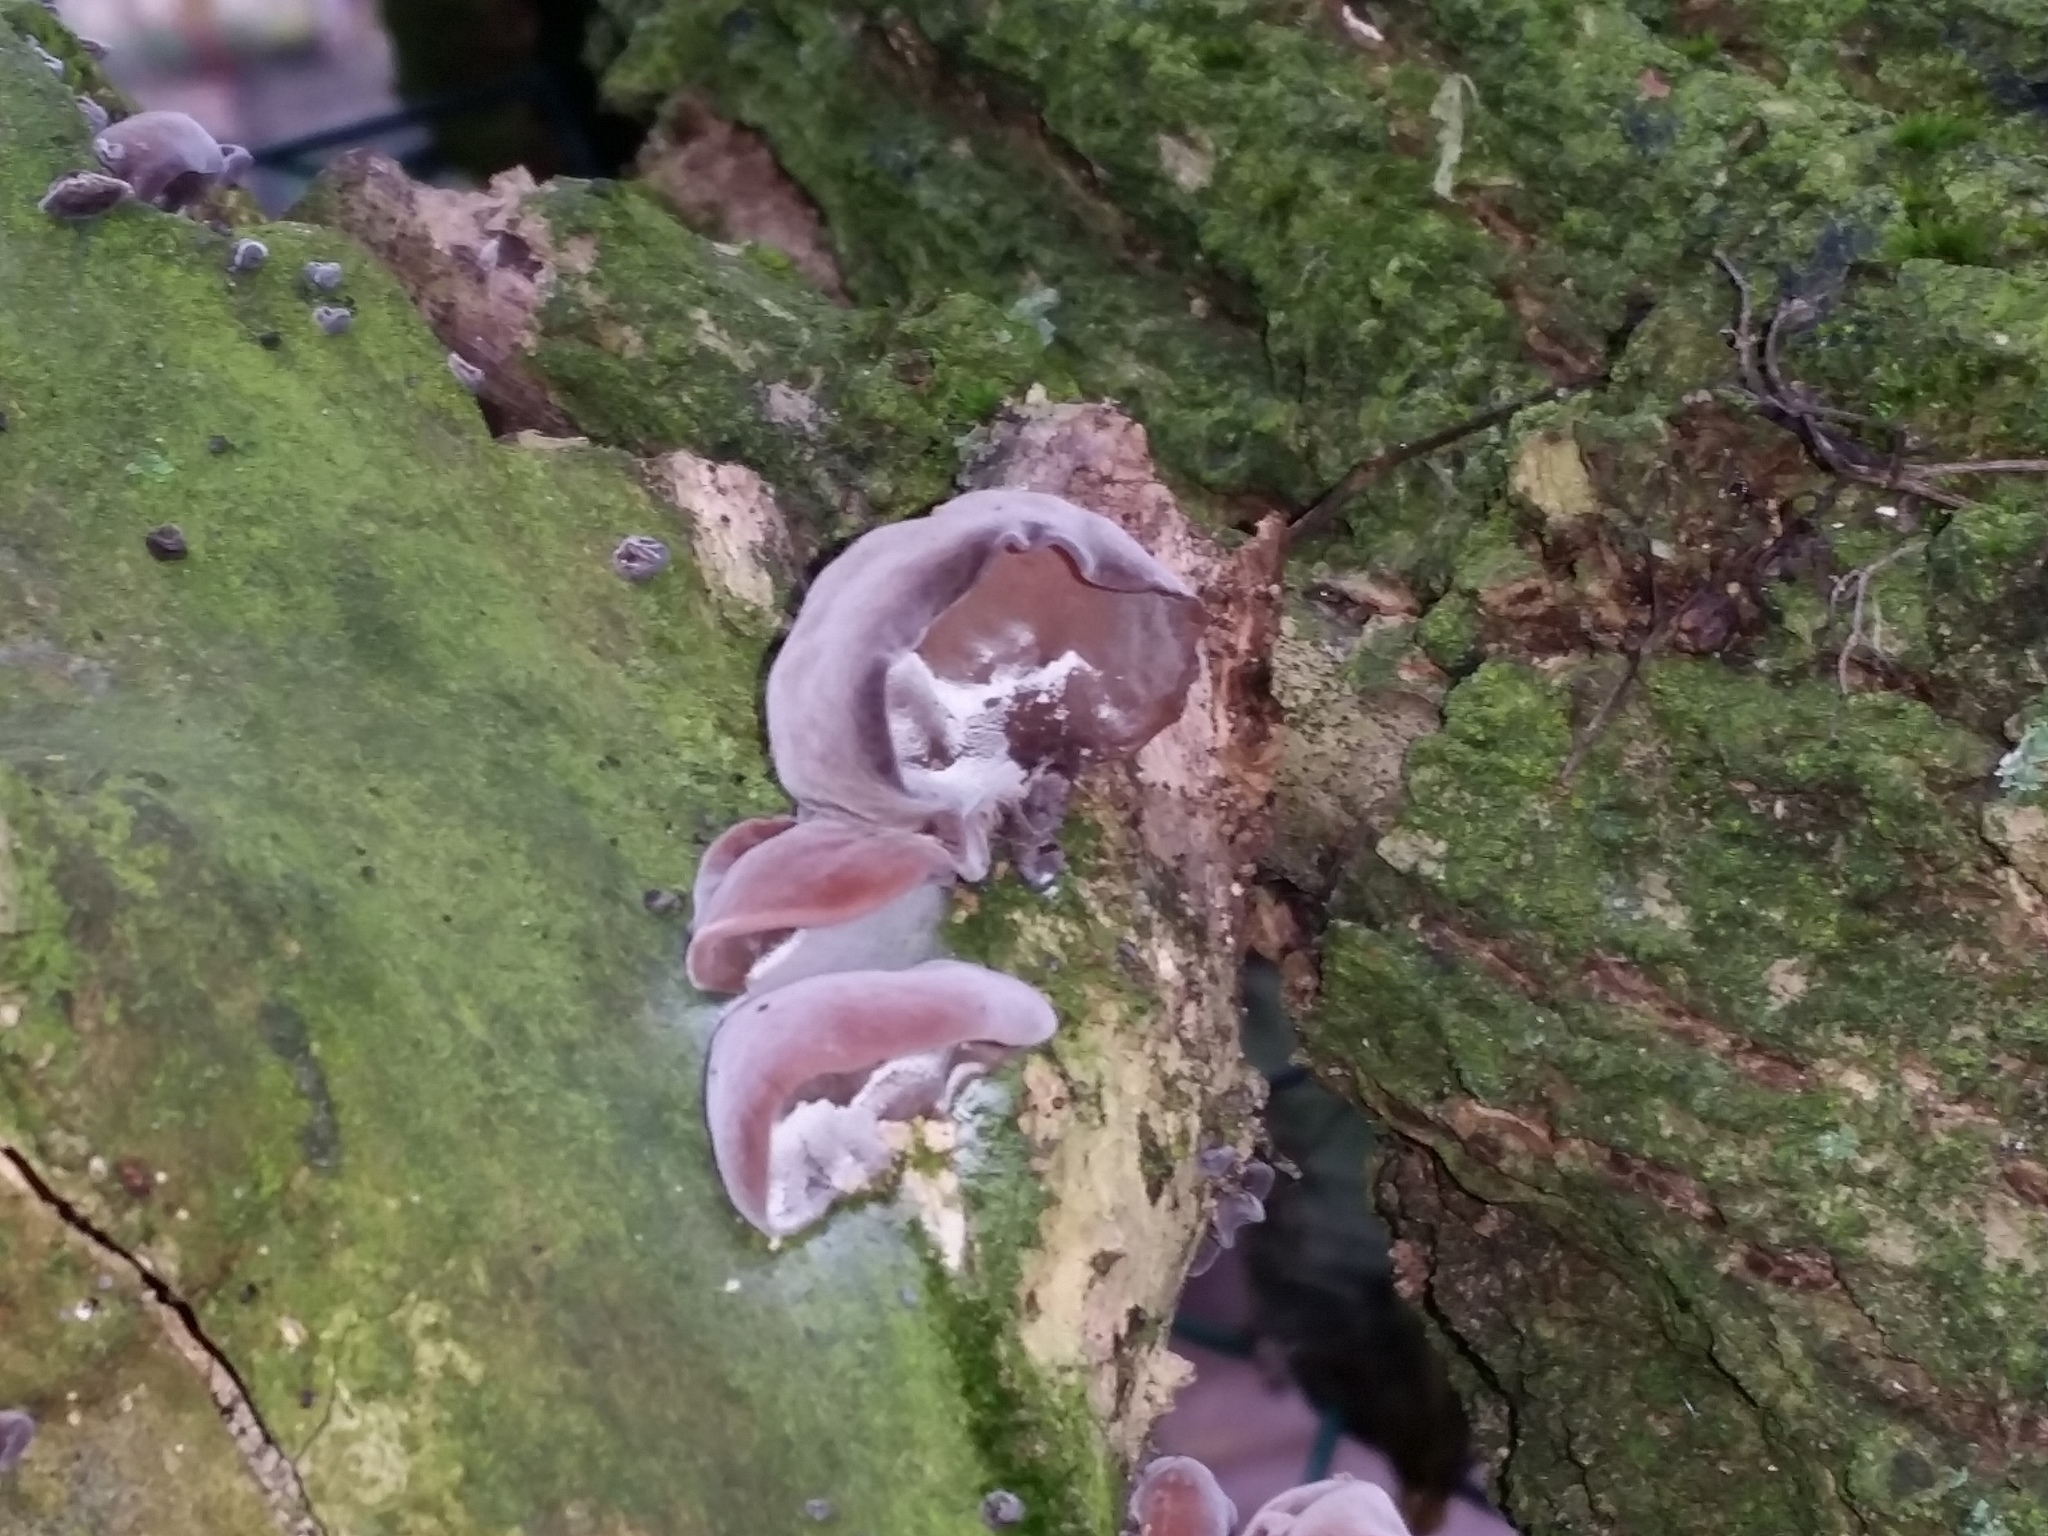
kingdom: Fungi
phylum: Basidiomycota
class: Agaricomycetes
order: Auriculariales
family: Auriculariaceae
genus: Auricularia
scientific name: Auricularia auricula-judae
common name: Jelly ear
